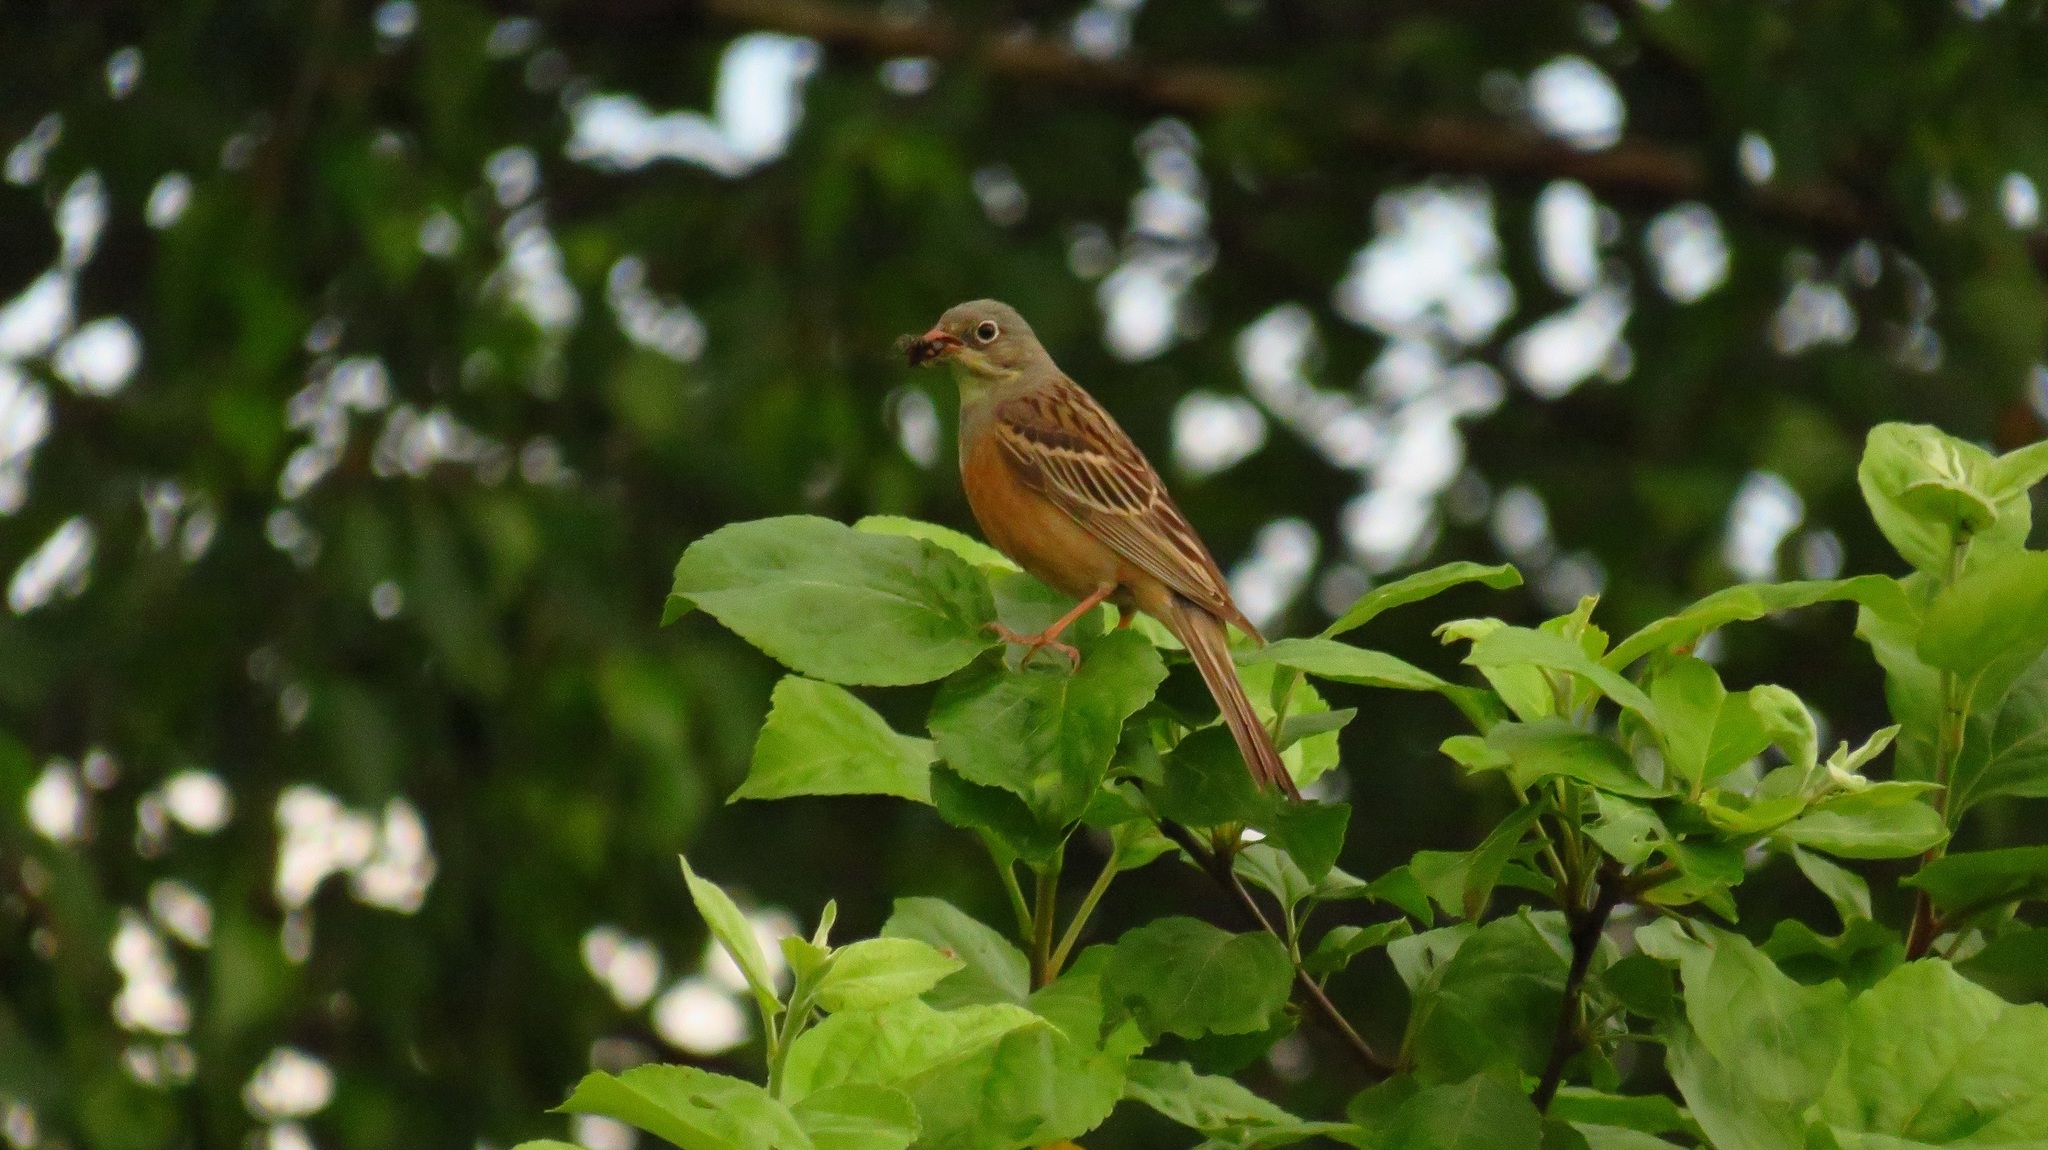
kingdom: Animalia
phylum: Chordata
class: Aves
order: Passeriformes
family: Emberizidae
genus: Emberiza
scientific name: Emberiza hortulana
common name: Ortolan bunting
